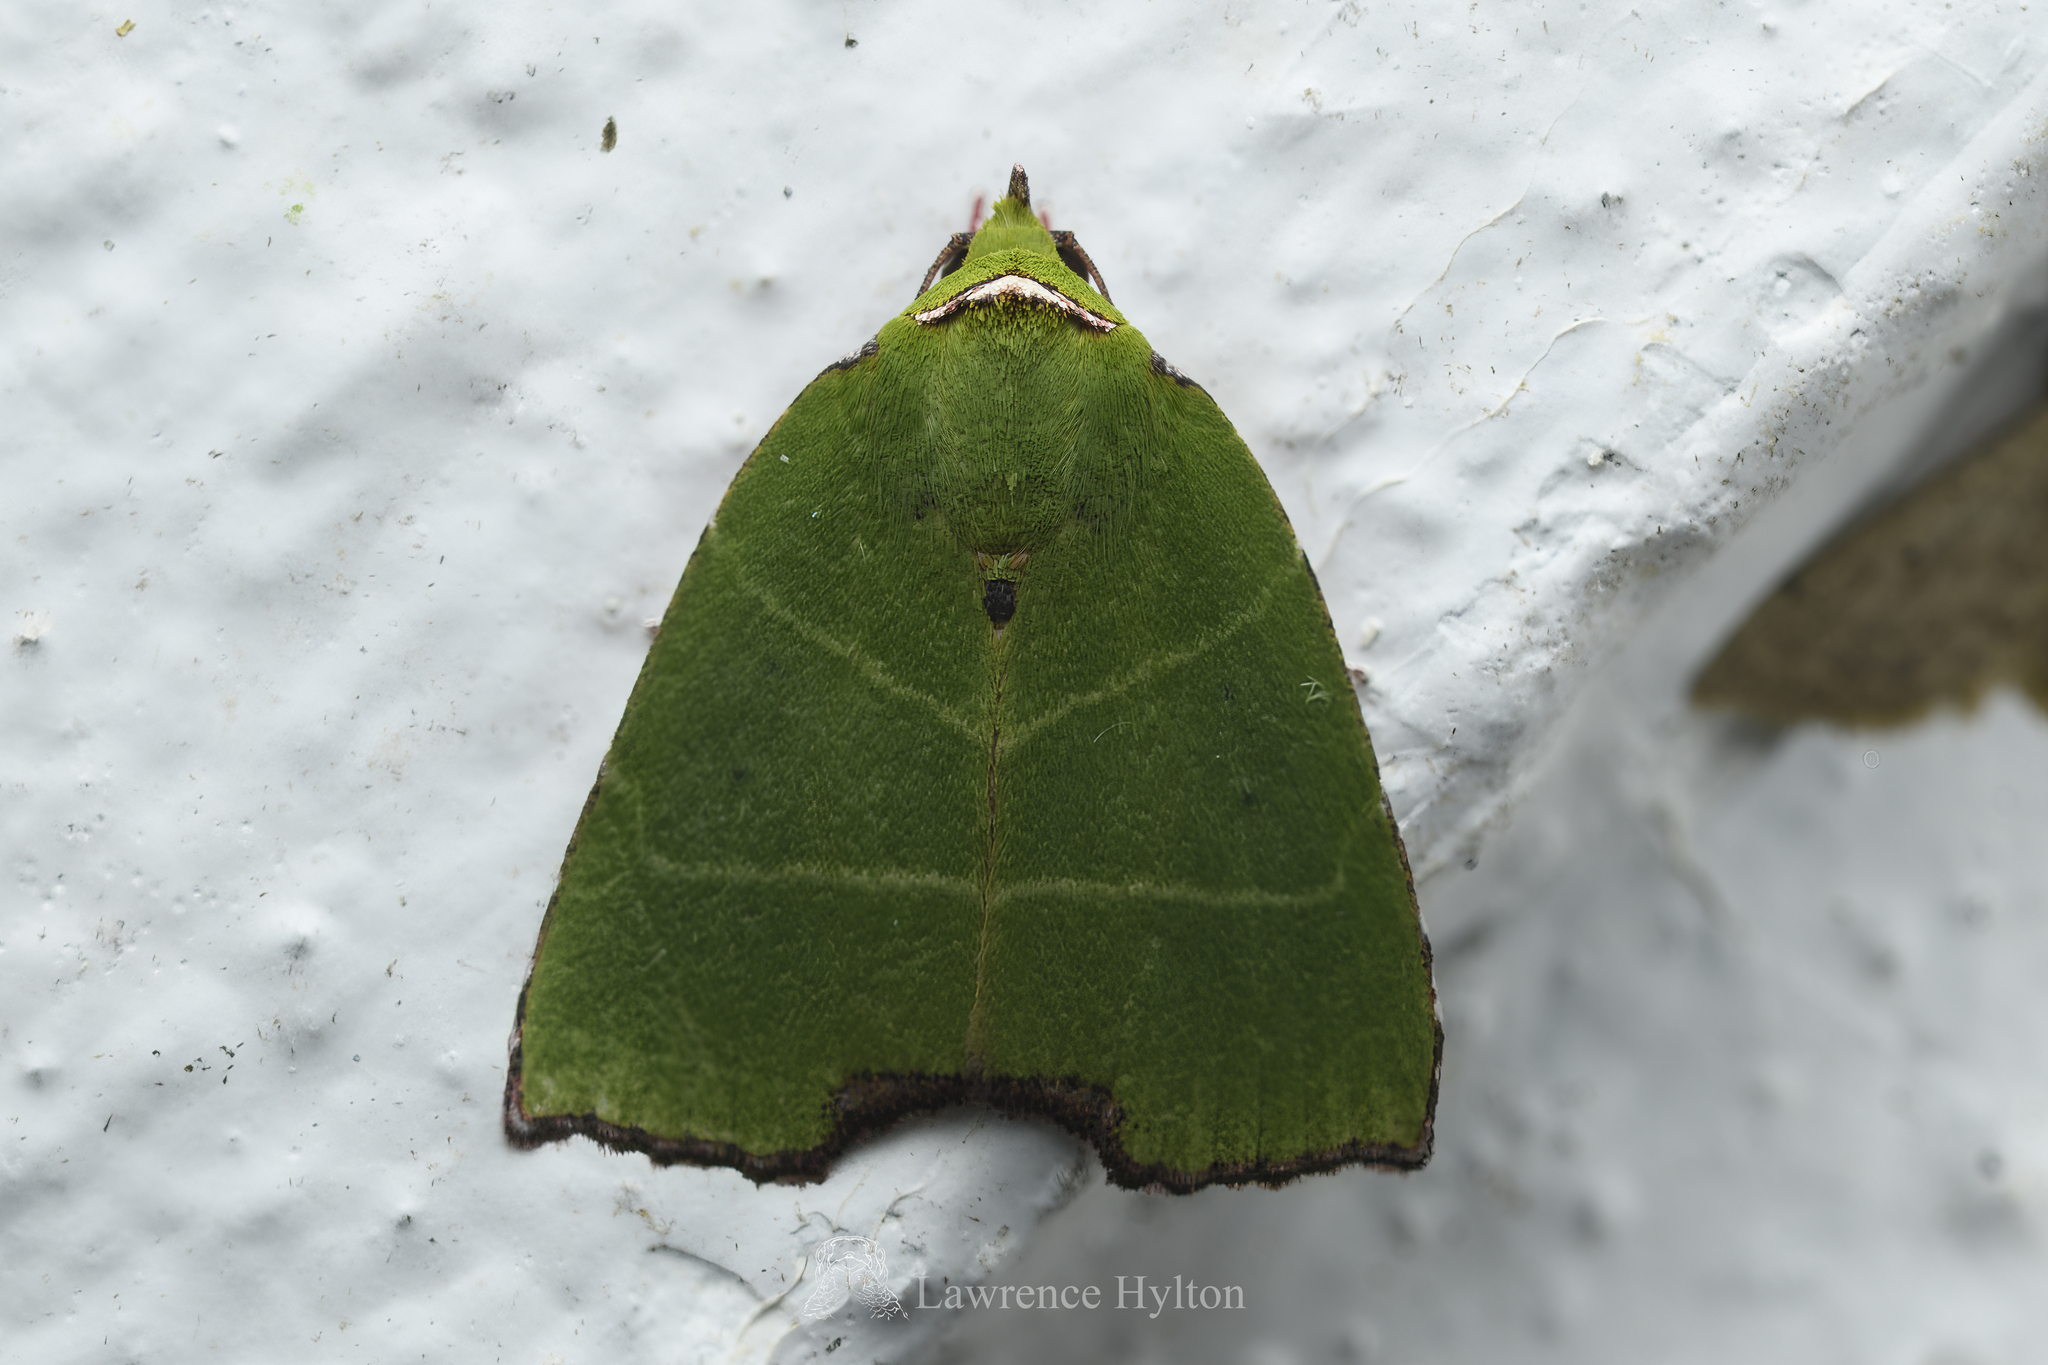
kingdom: Animalia
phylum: Arthropoda
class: Insecta
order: Lepidoptera
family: Nolidae
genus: Paracrama
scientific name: Paracrama angulata
